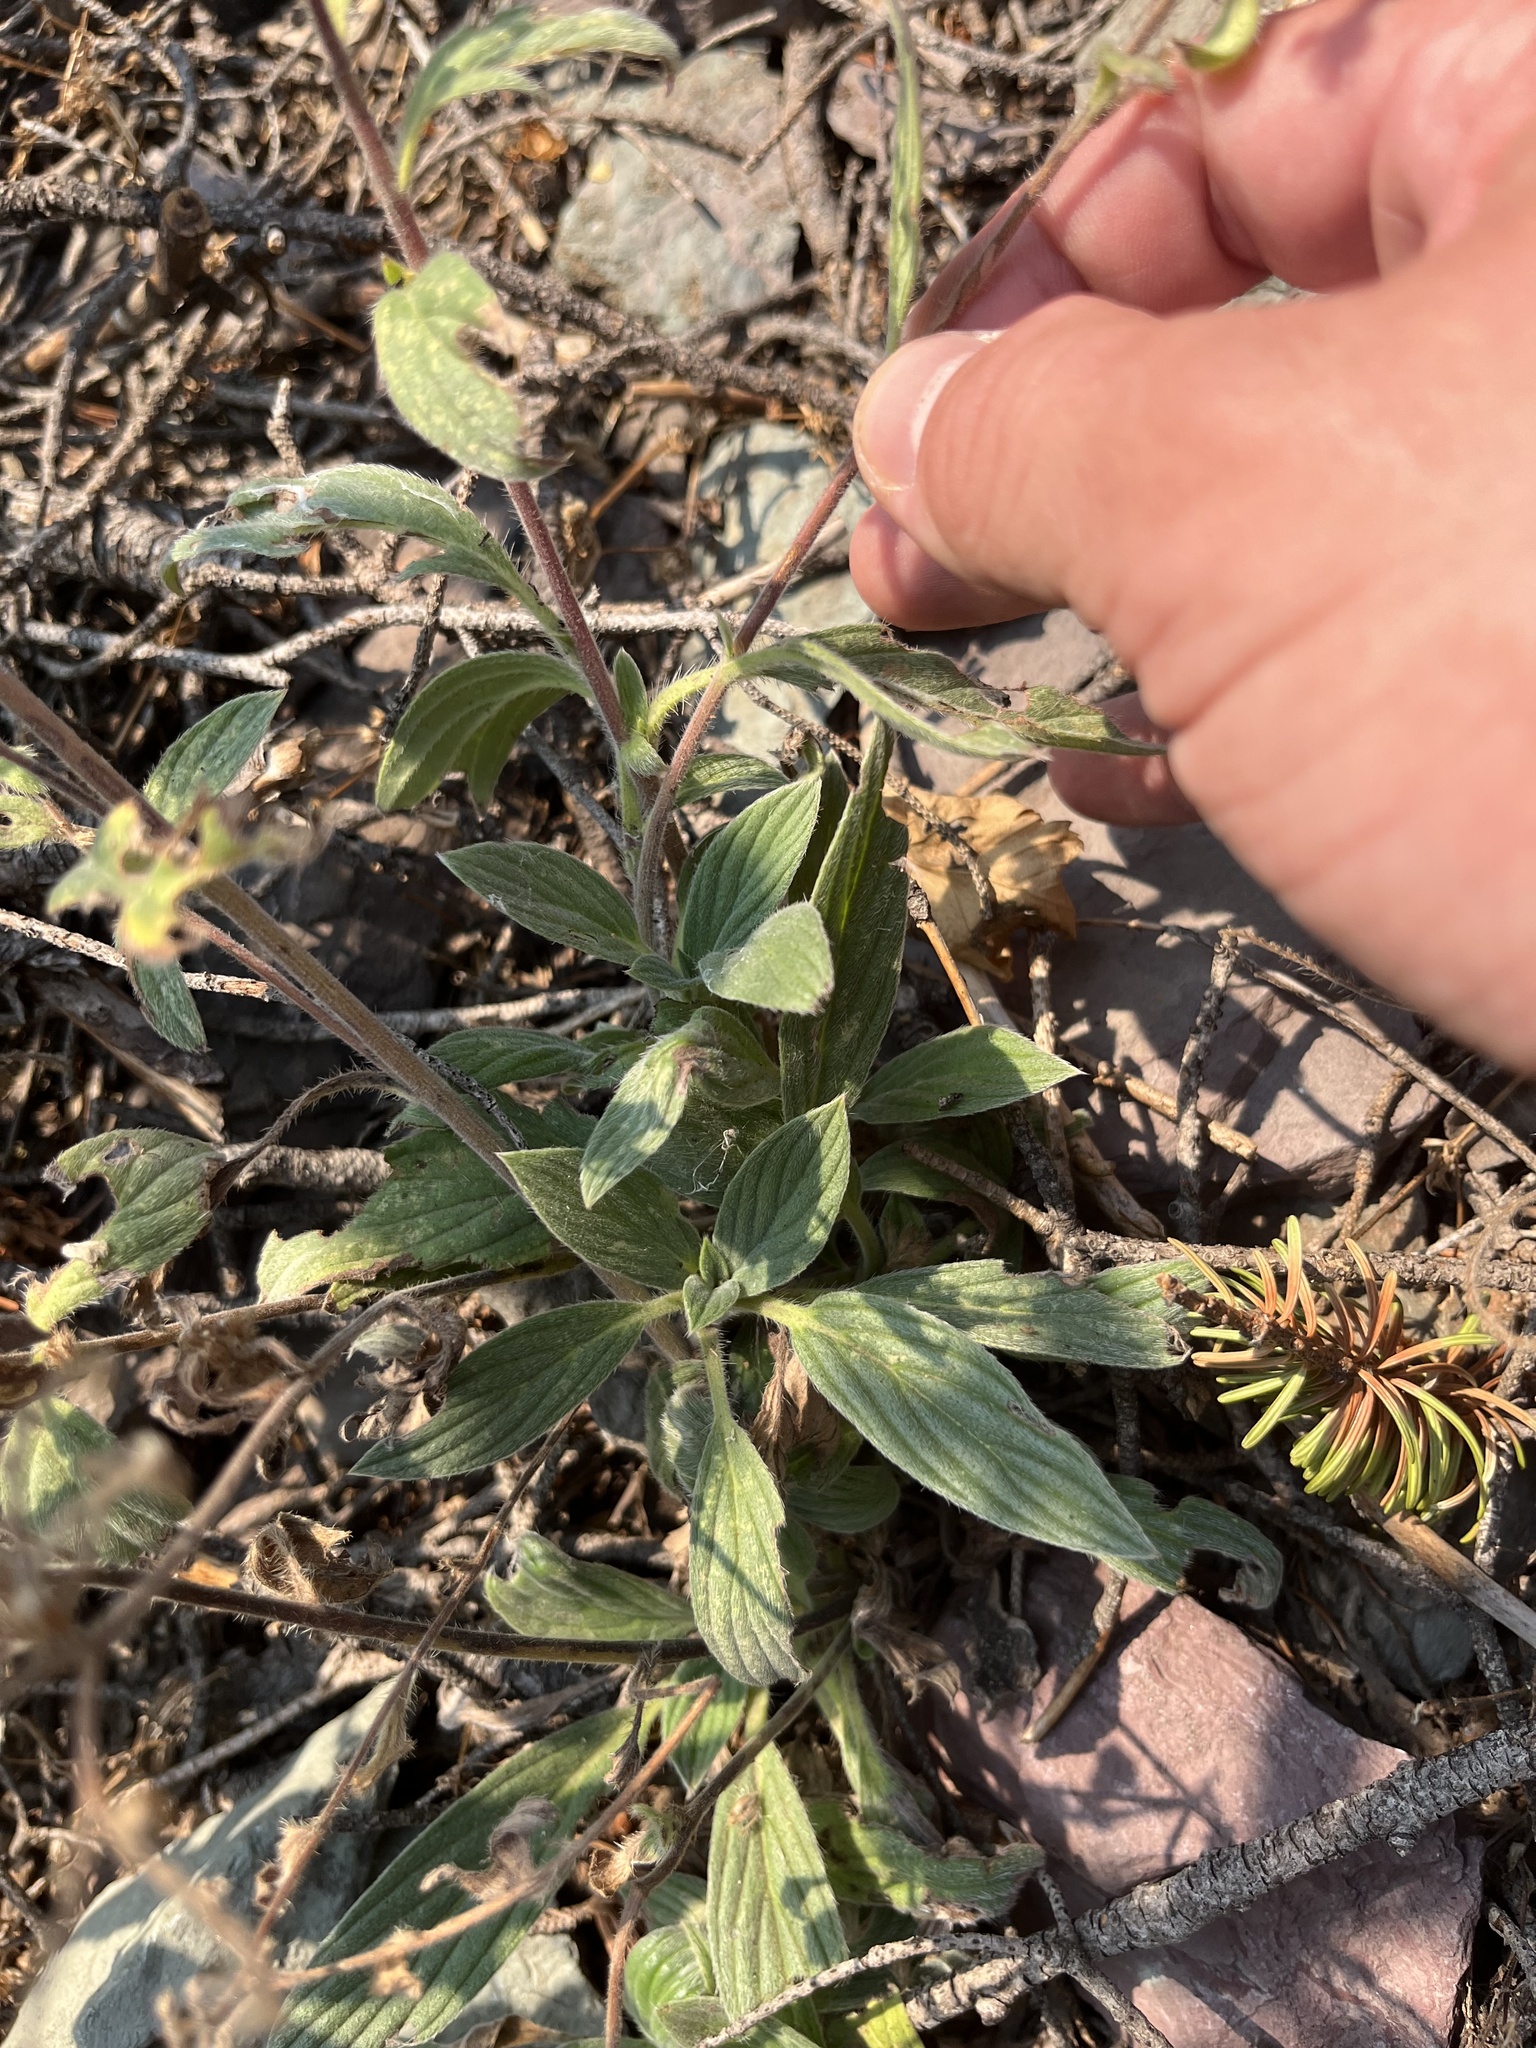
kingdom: Plantae
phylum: Tracheophyta
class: Magnoliopsida
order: Boraginales
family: Hydrophyllaceae
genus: Phacelia
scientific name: Phacelia hastata
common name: Silver-leaved phacelia
